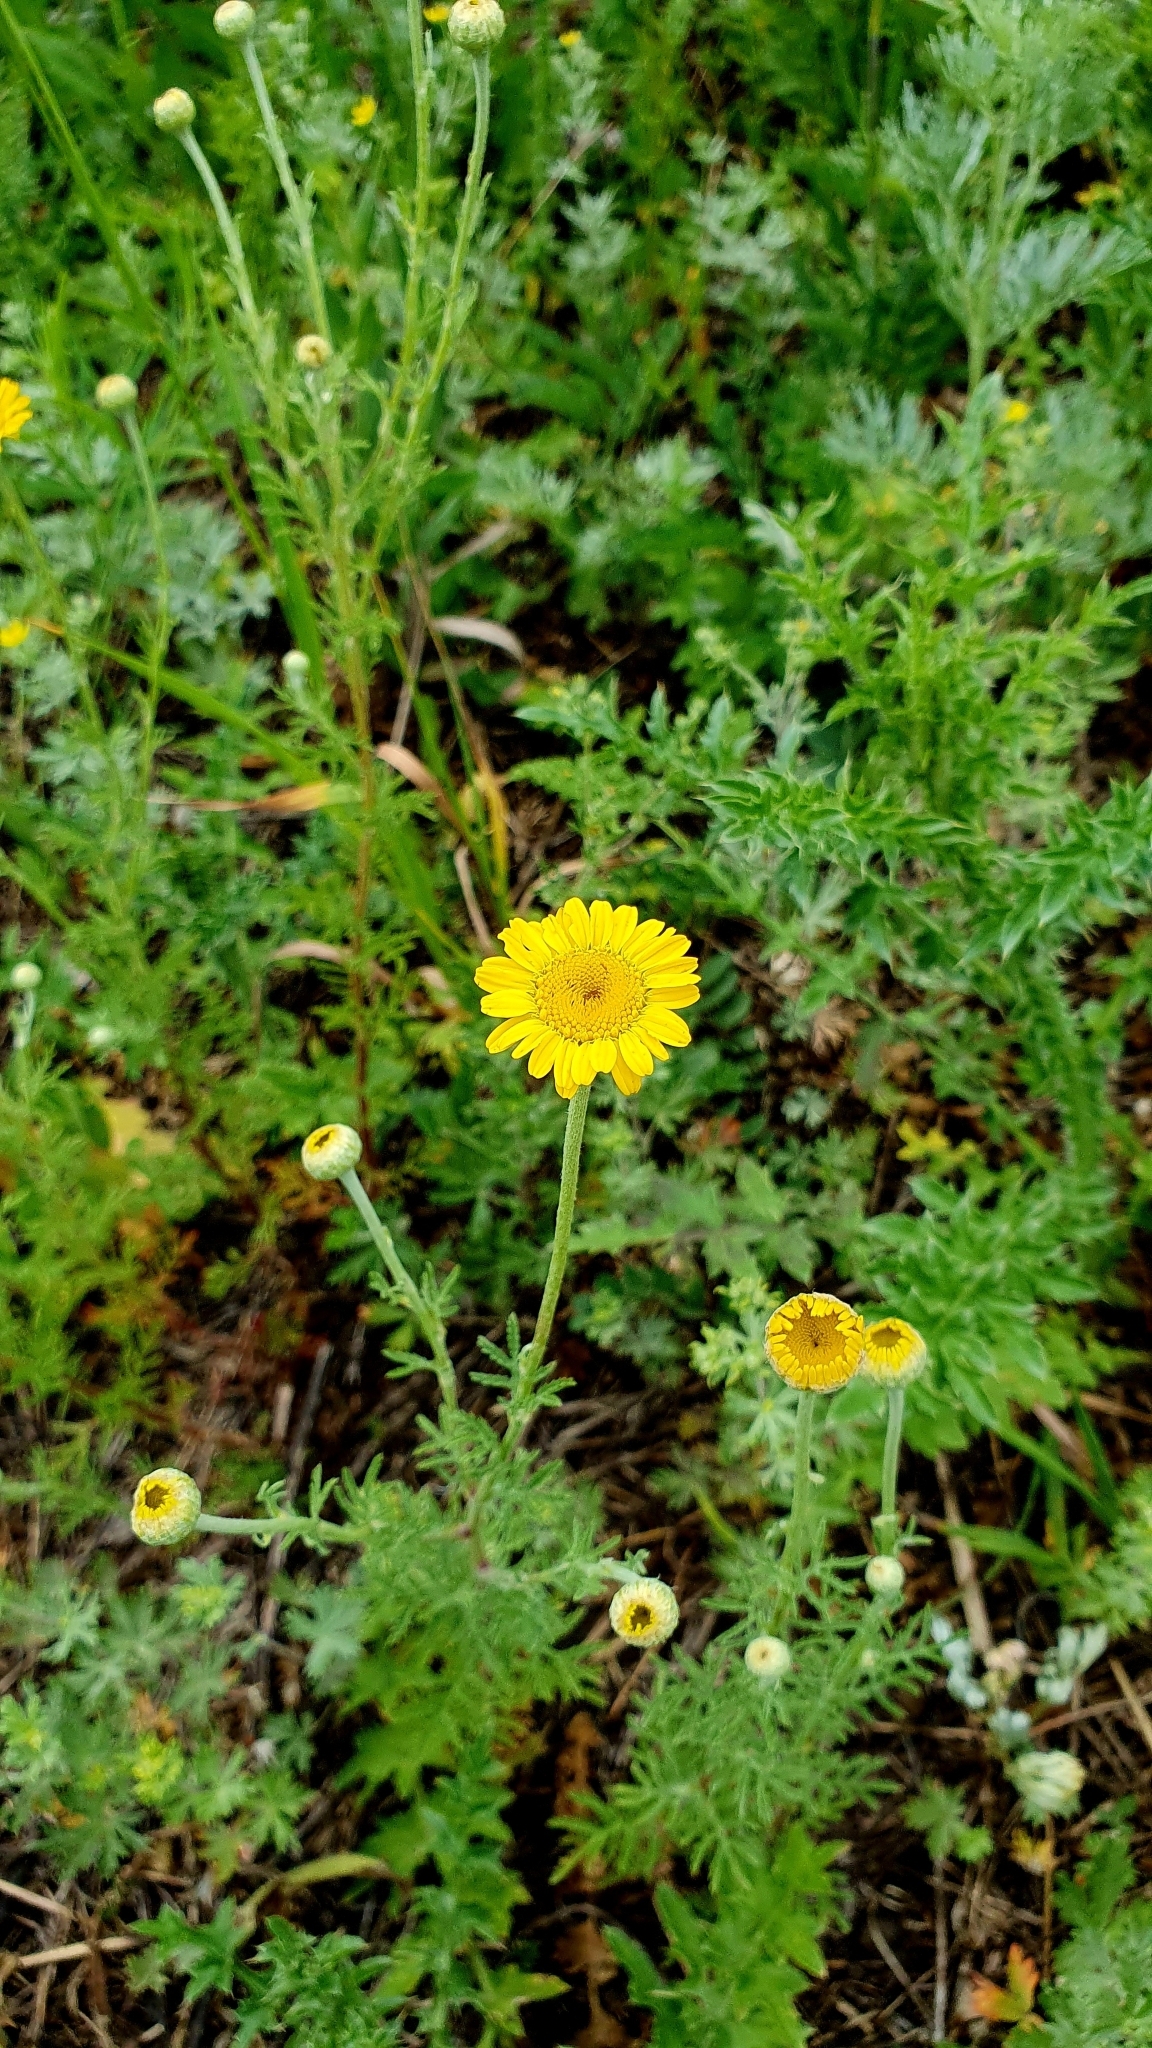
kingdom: Plantae
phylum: Tracheophyta
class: Magnoliopsida
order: Asterales
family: Asteraceae
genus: Cota
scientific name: Cota tinctoria
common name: Golden chamomile
